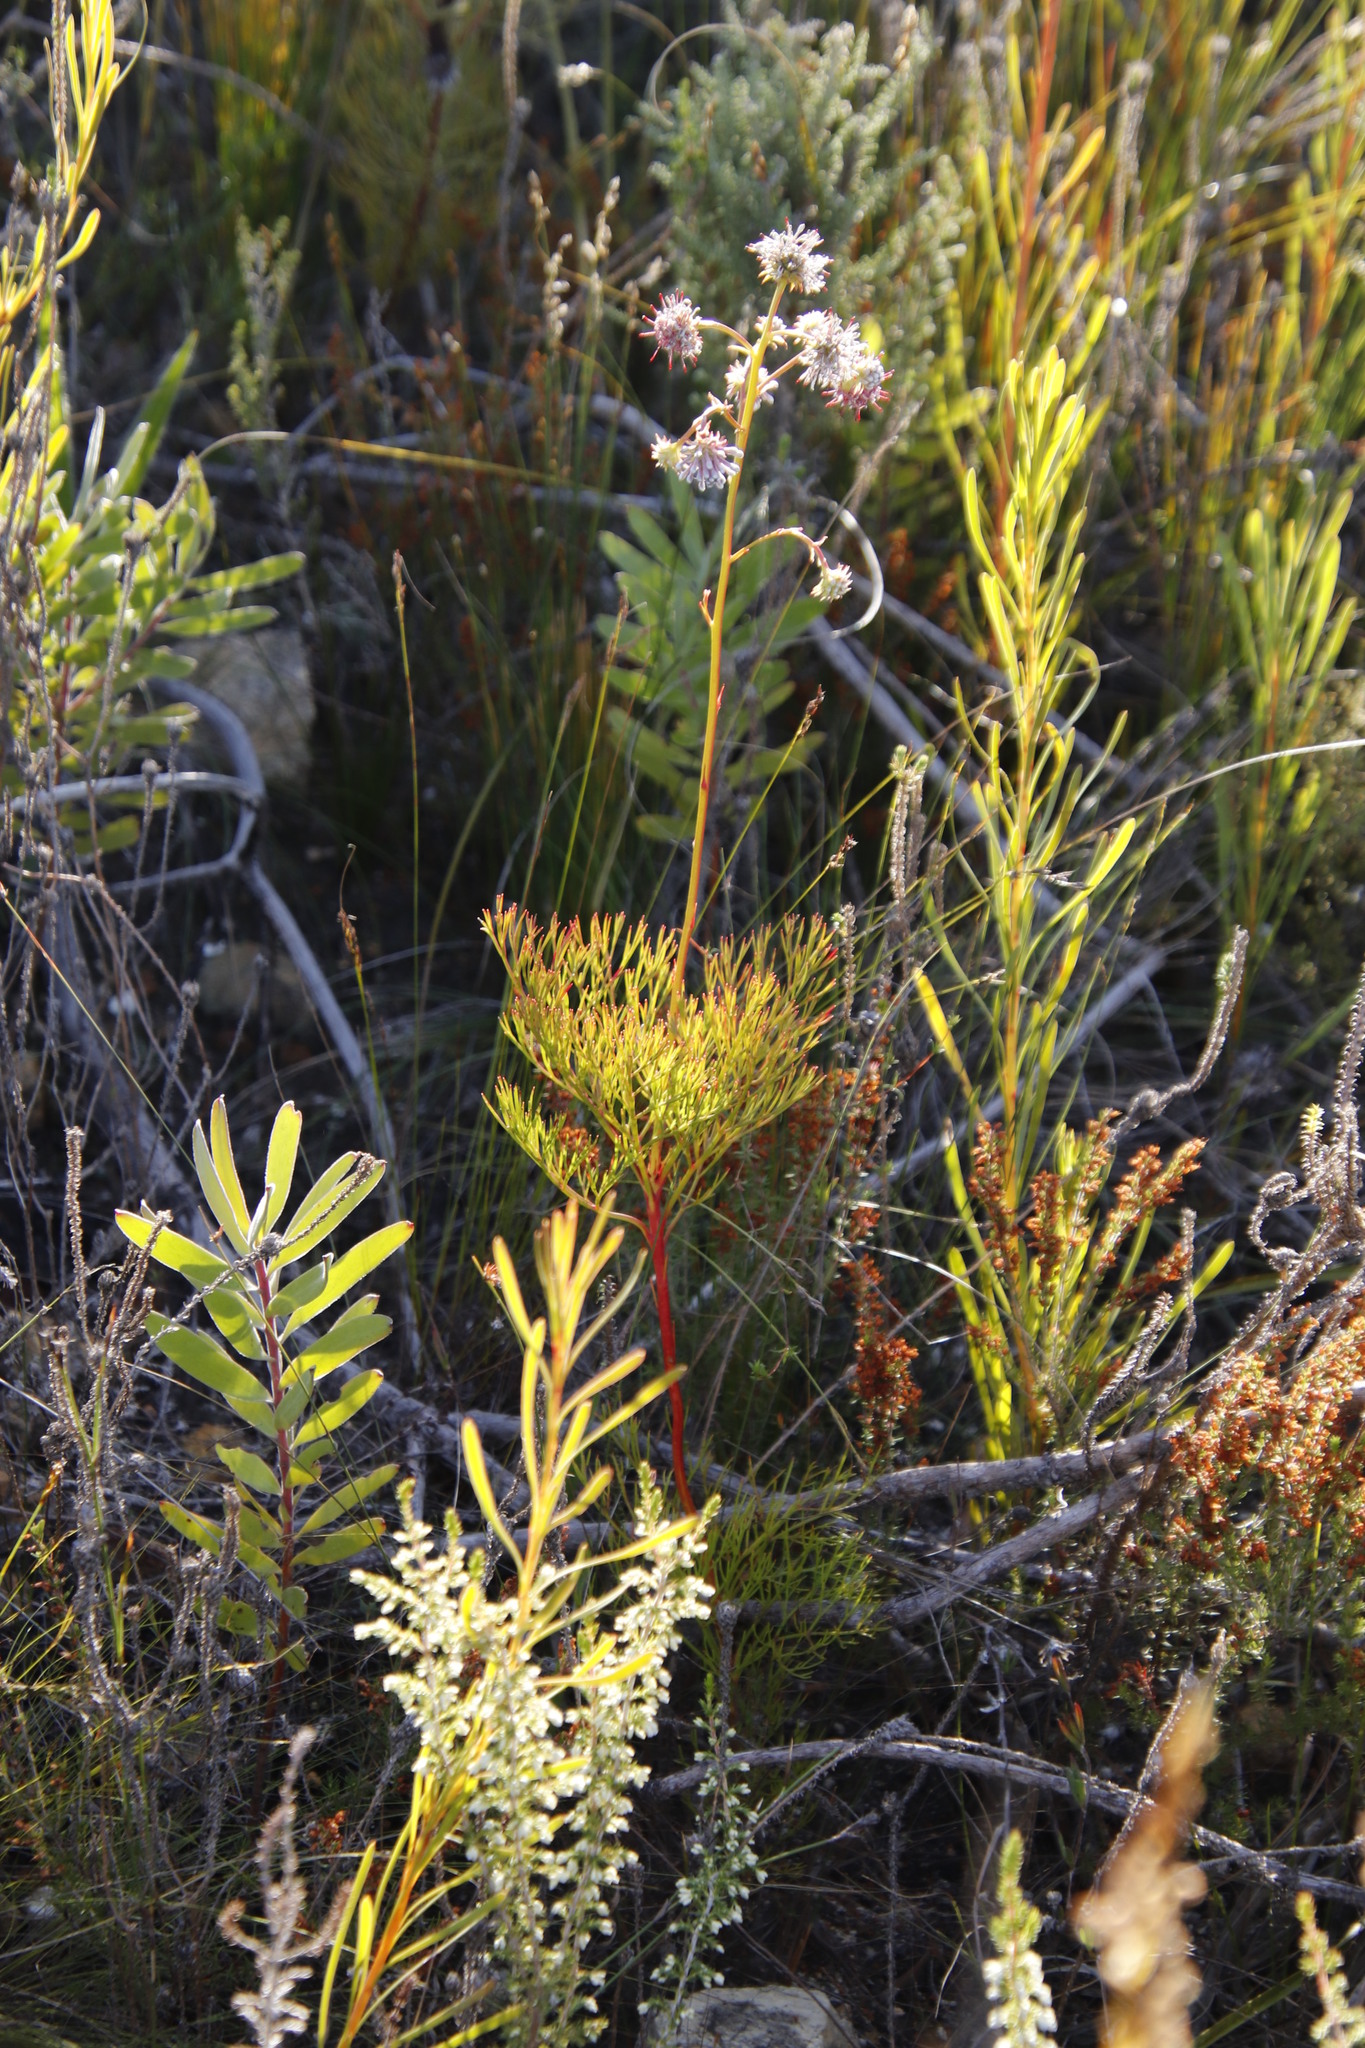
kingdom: Plantae
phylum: Tracheophyta
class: Magnoliopsida
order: Proteales
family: Proteaceae
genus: Serruria
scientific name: Serruria elongata
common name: Long-stalk spiderhead
